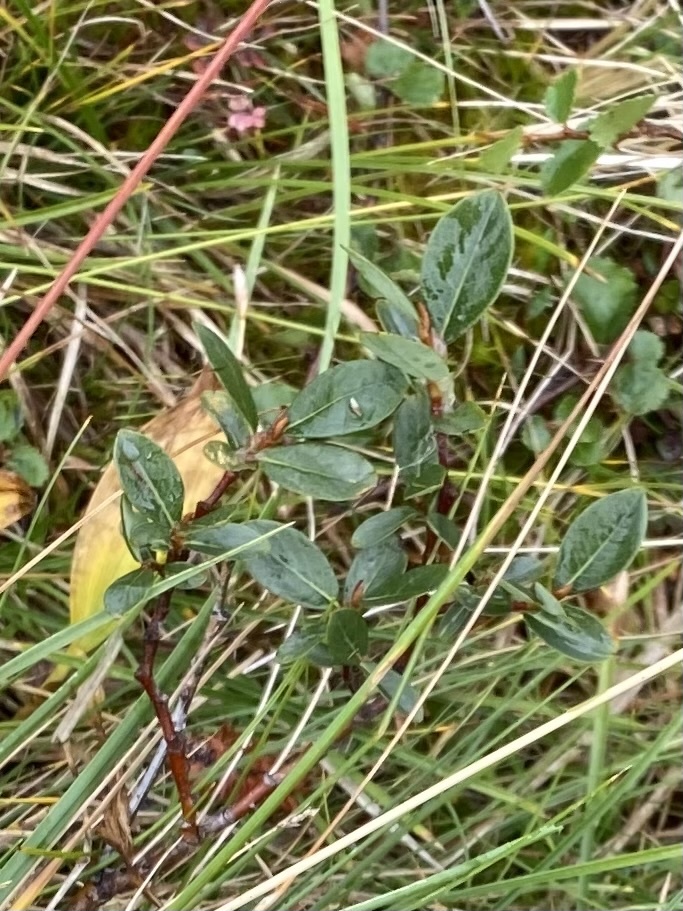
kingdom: Plantae
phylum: Tracheophyta
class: Magnoliopsida
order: Malpighiales
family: Salicaceae
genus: Salix
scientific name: Salix saxatilis
